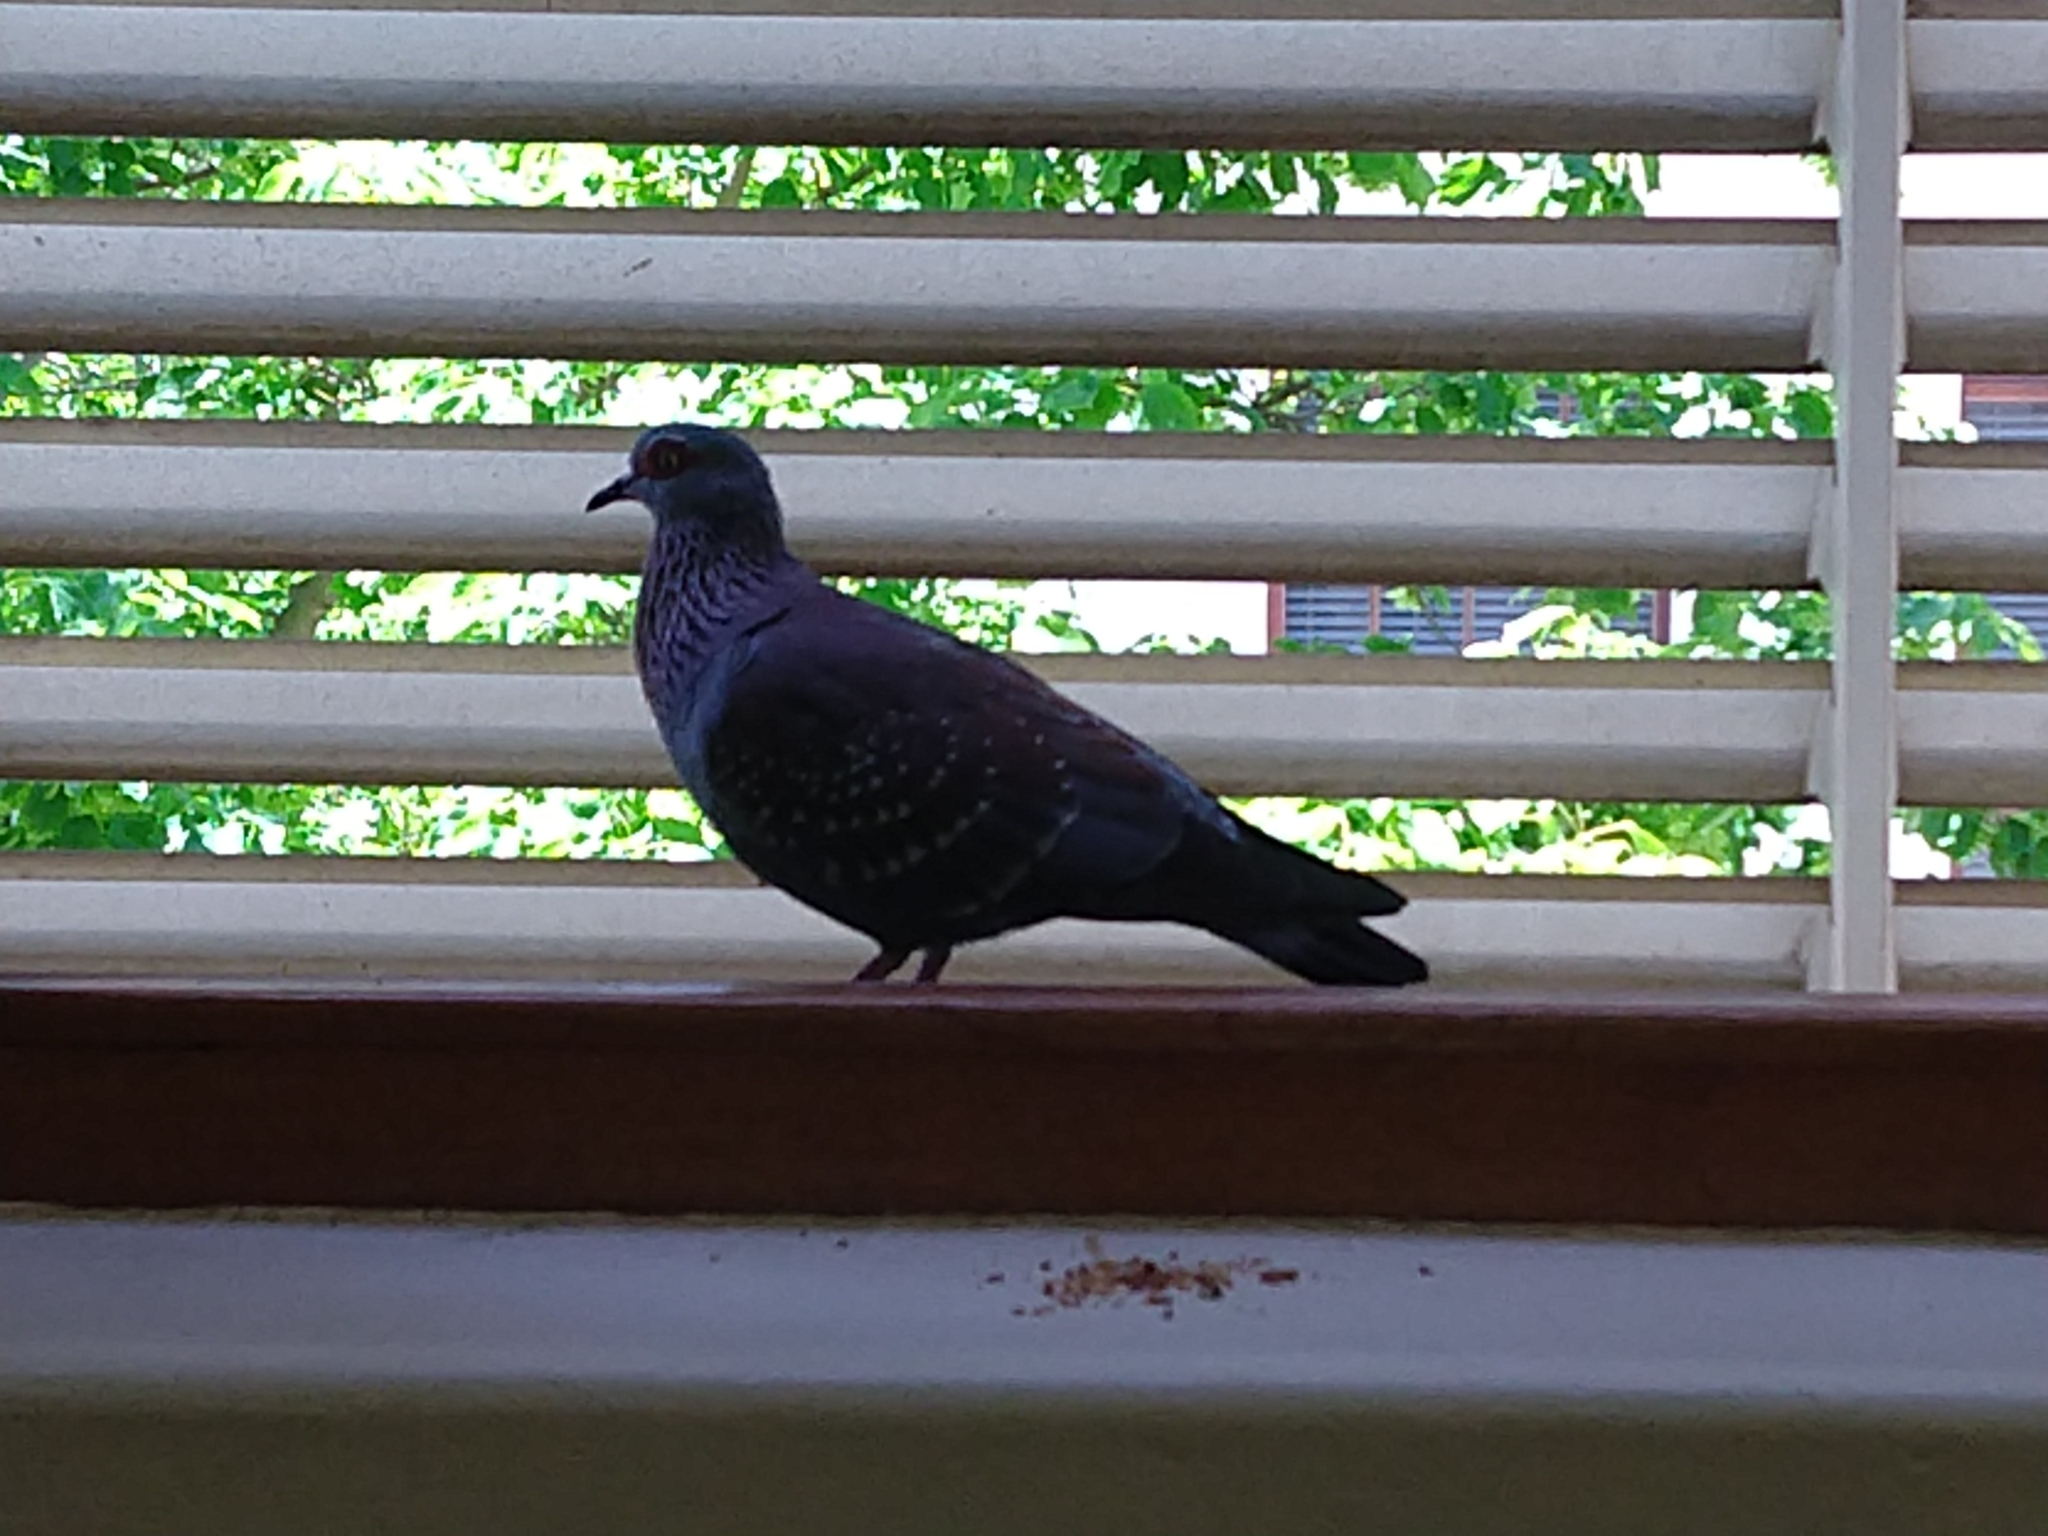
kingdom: Animalia
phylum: Chordata
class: Aves
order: Columbiformes
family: Columbidae
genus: Columba
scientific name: Columba guinea
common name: Speckled pigeon
